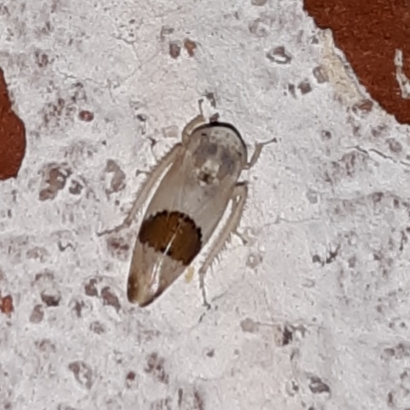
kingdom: Animalia
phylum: Arthropoda
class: Insecta
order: Hemiptera
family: Cicadellidae
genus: Norvellina
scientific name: Norvellina seminuda
